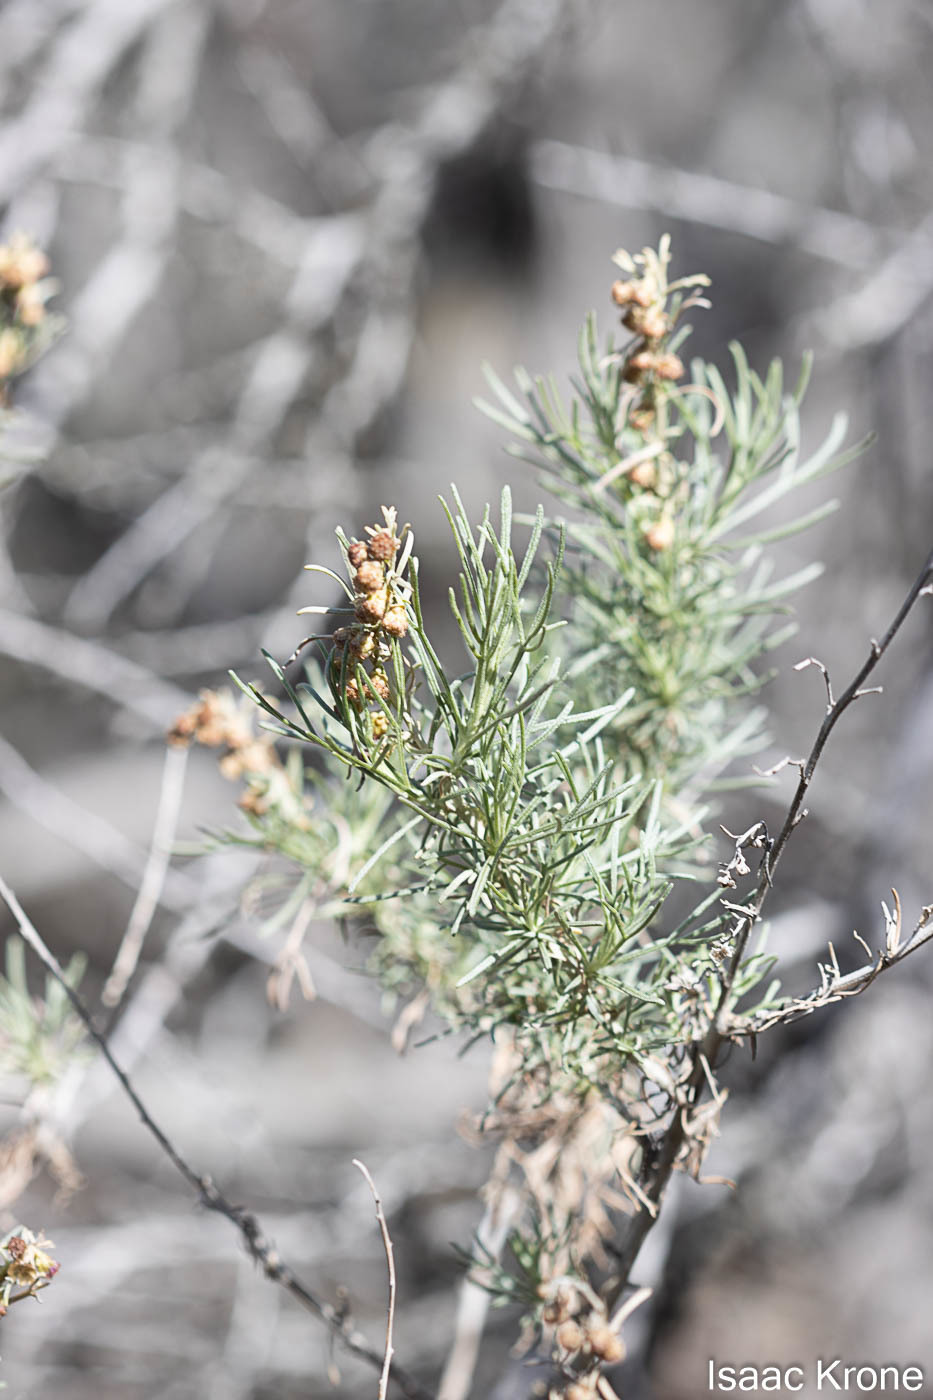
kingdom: Plantae
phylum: Tracheophyta
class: Magnoliopsida
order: Asterales
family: Asteraceae
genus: Artemisia
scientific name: Artemisia californica
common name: California sagebrush
